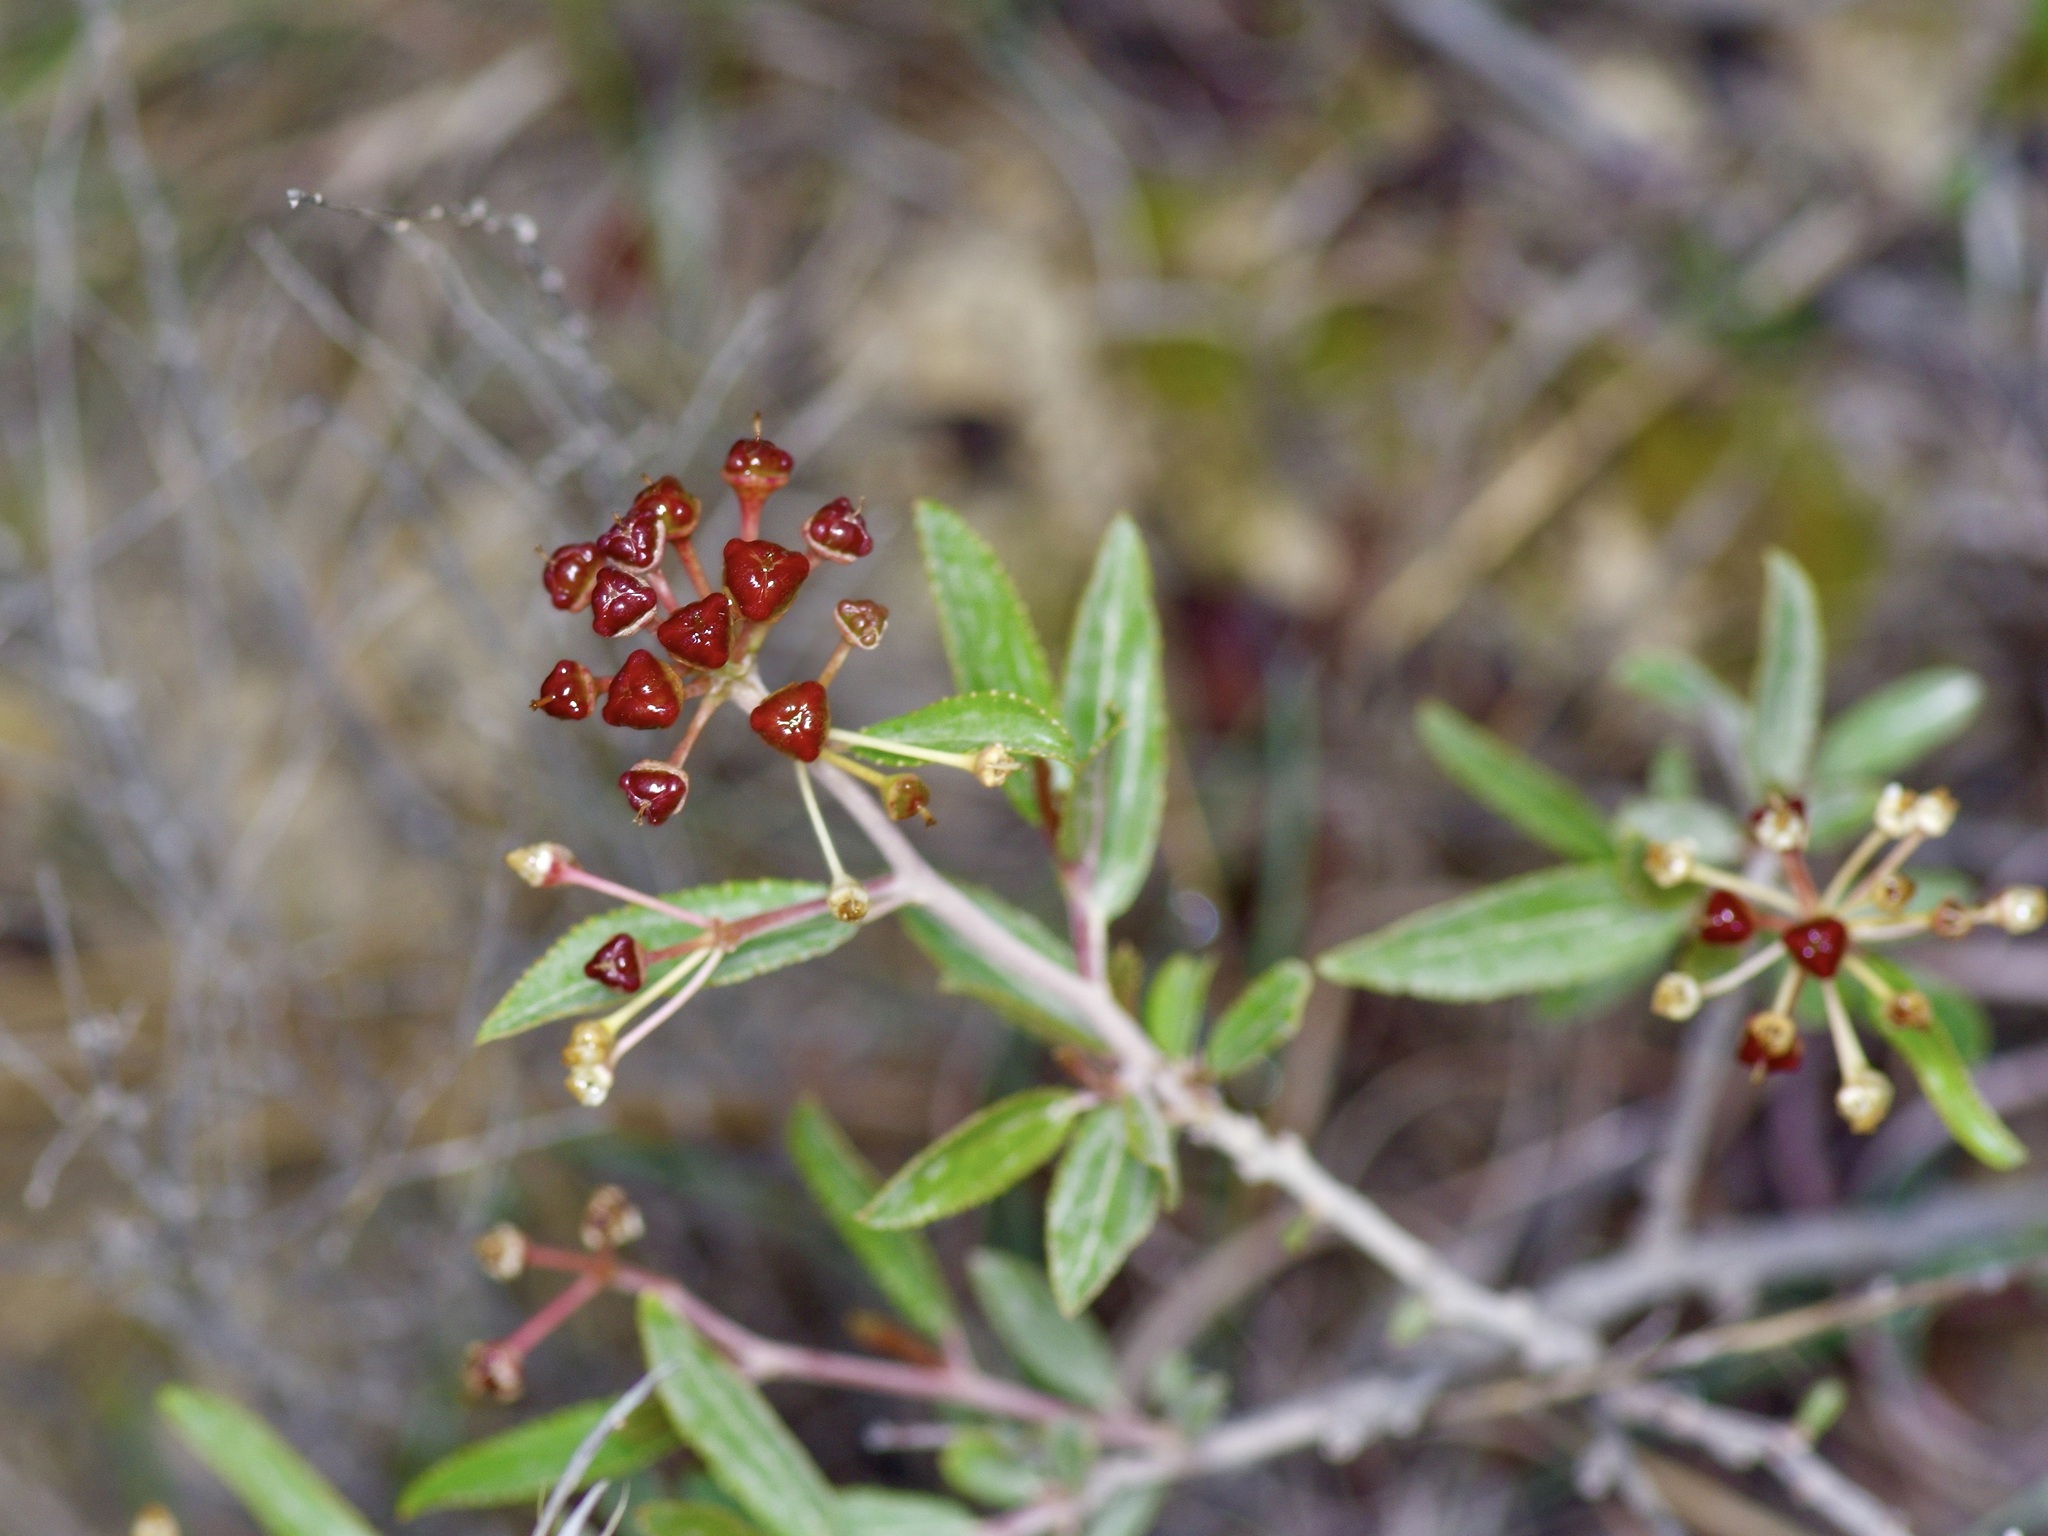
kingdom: Plantae
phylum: Tracheophyta
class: Magnoliopsida
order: Rosales
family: Rhamnaceae
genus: Ceanothus
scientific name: Ceanothus herbaceus
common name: Inland ceanothus
